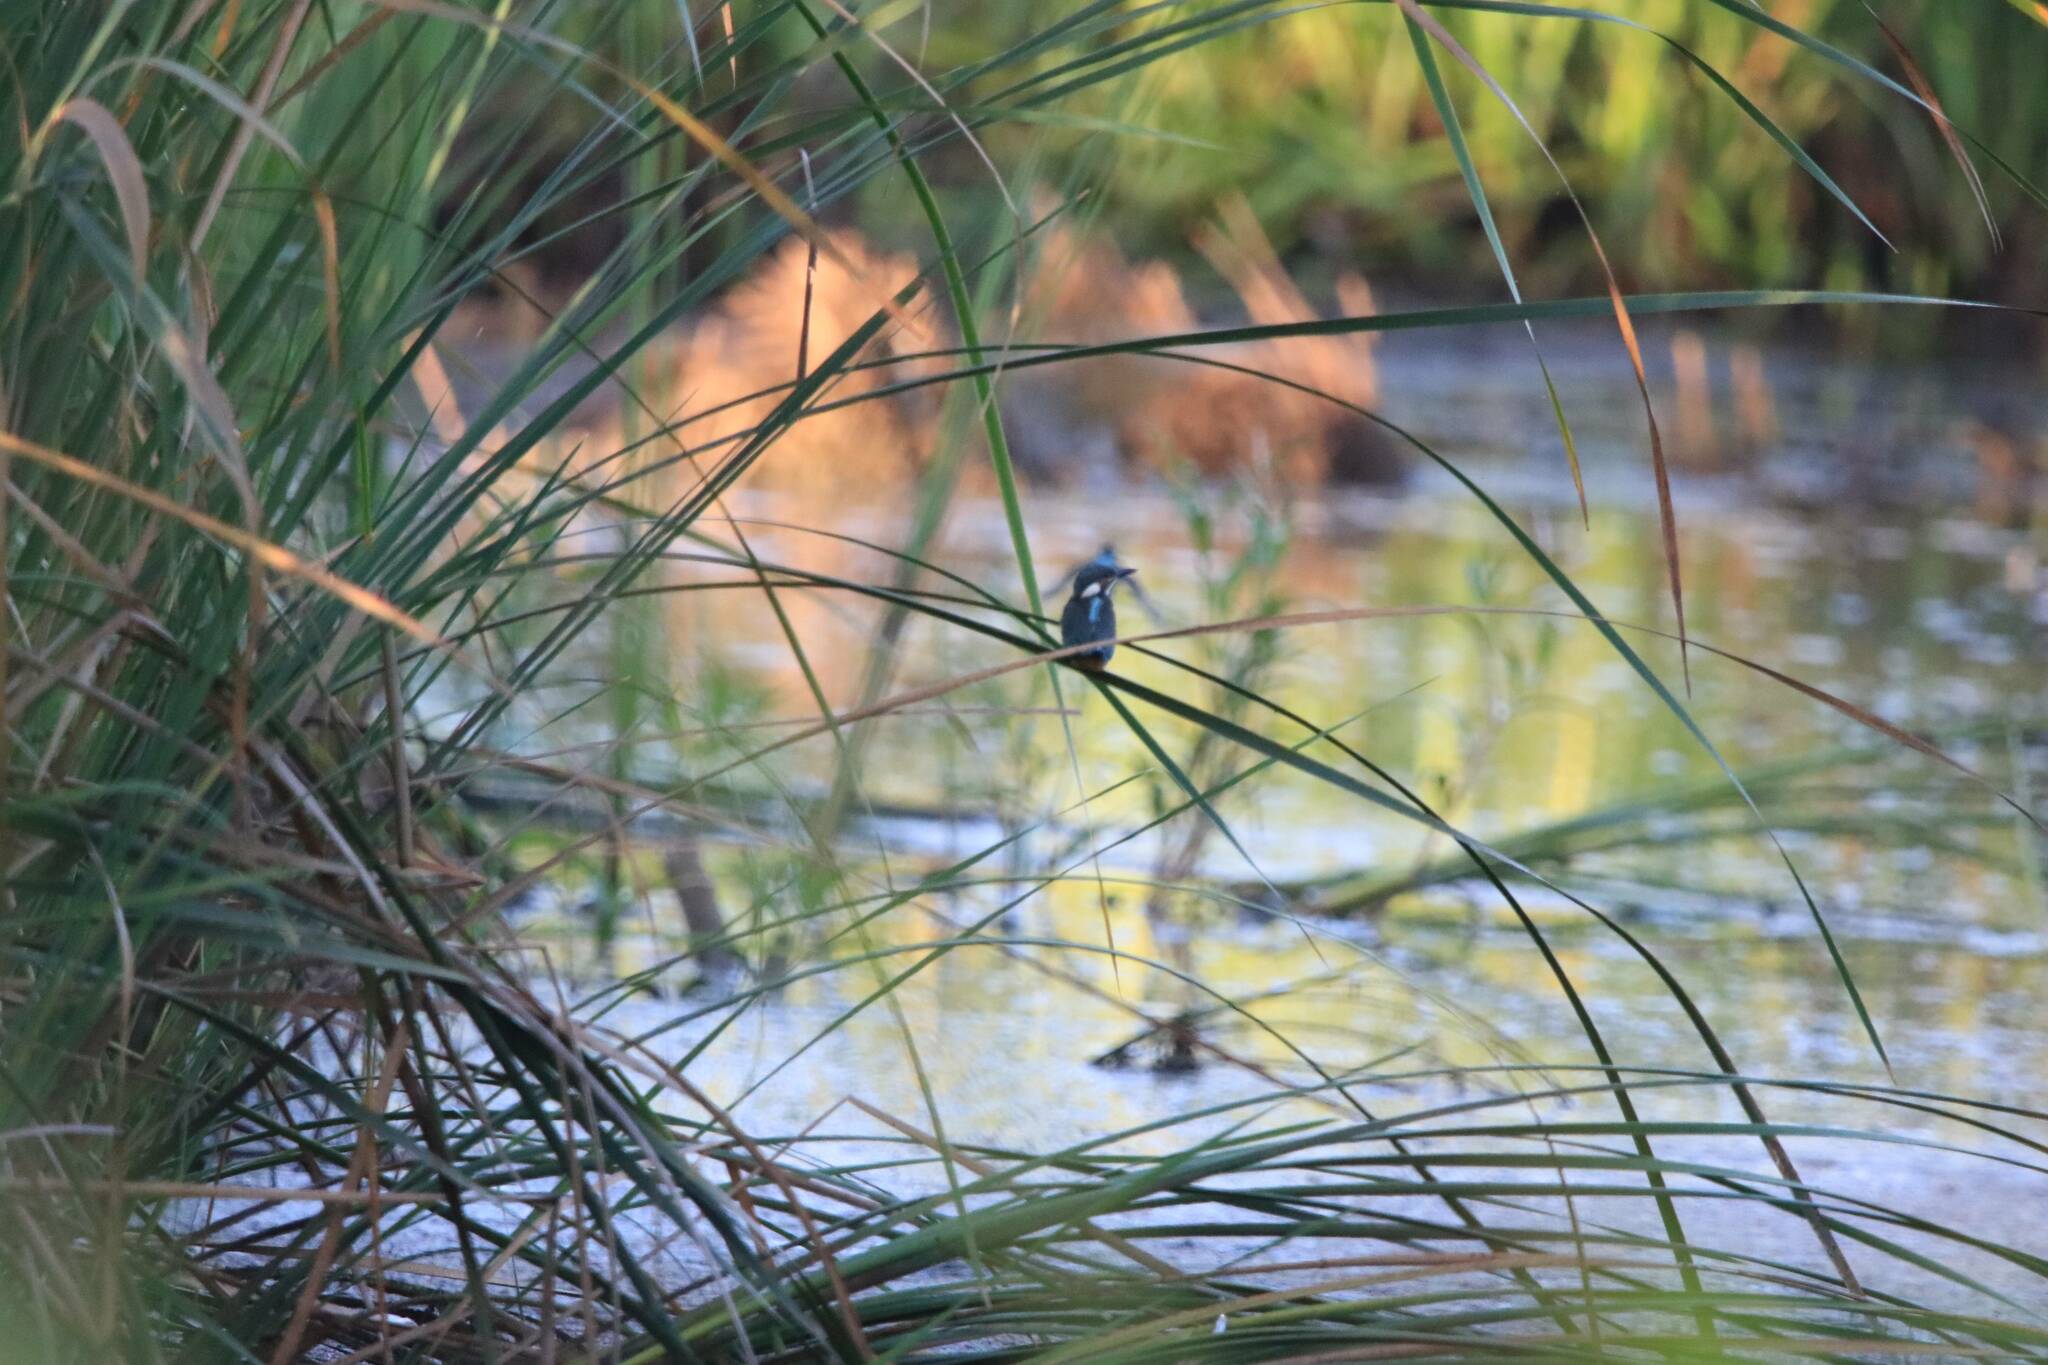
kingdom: Animalia
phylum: Chordata
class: Aves
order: Coraciiformes
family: Alcedinidae
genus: Alcedo
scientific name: Alcedo atthis
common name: Common kingfisher
